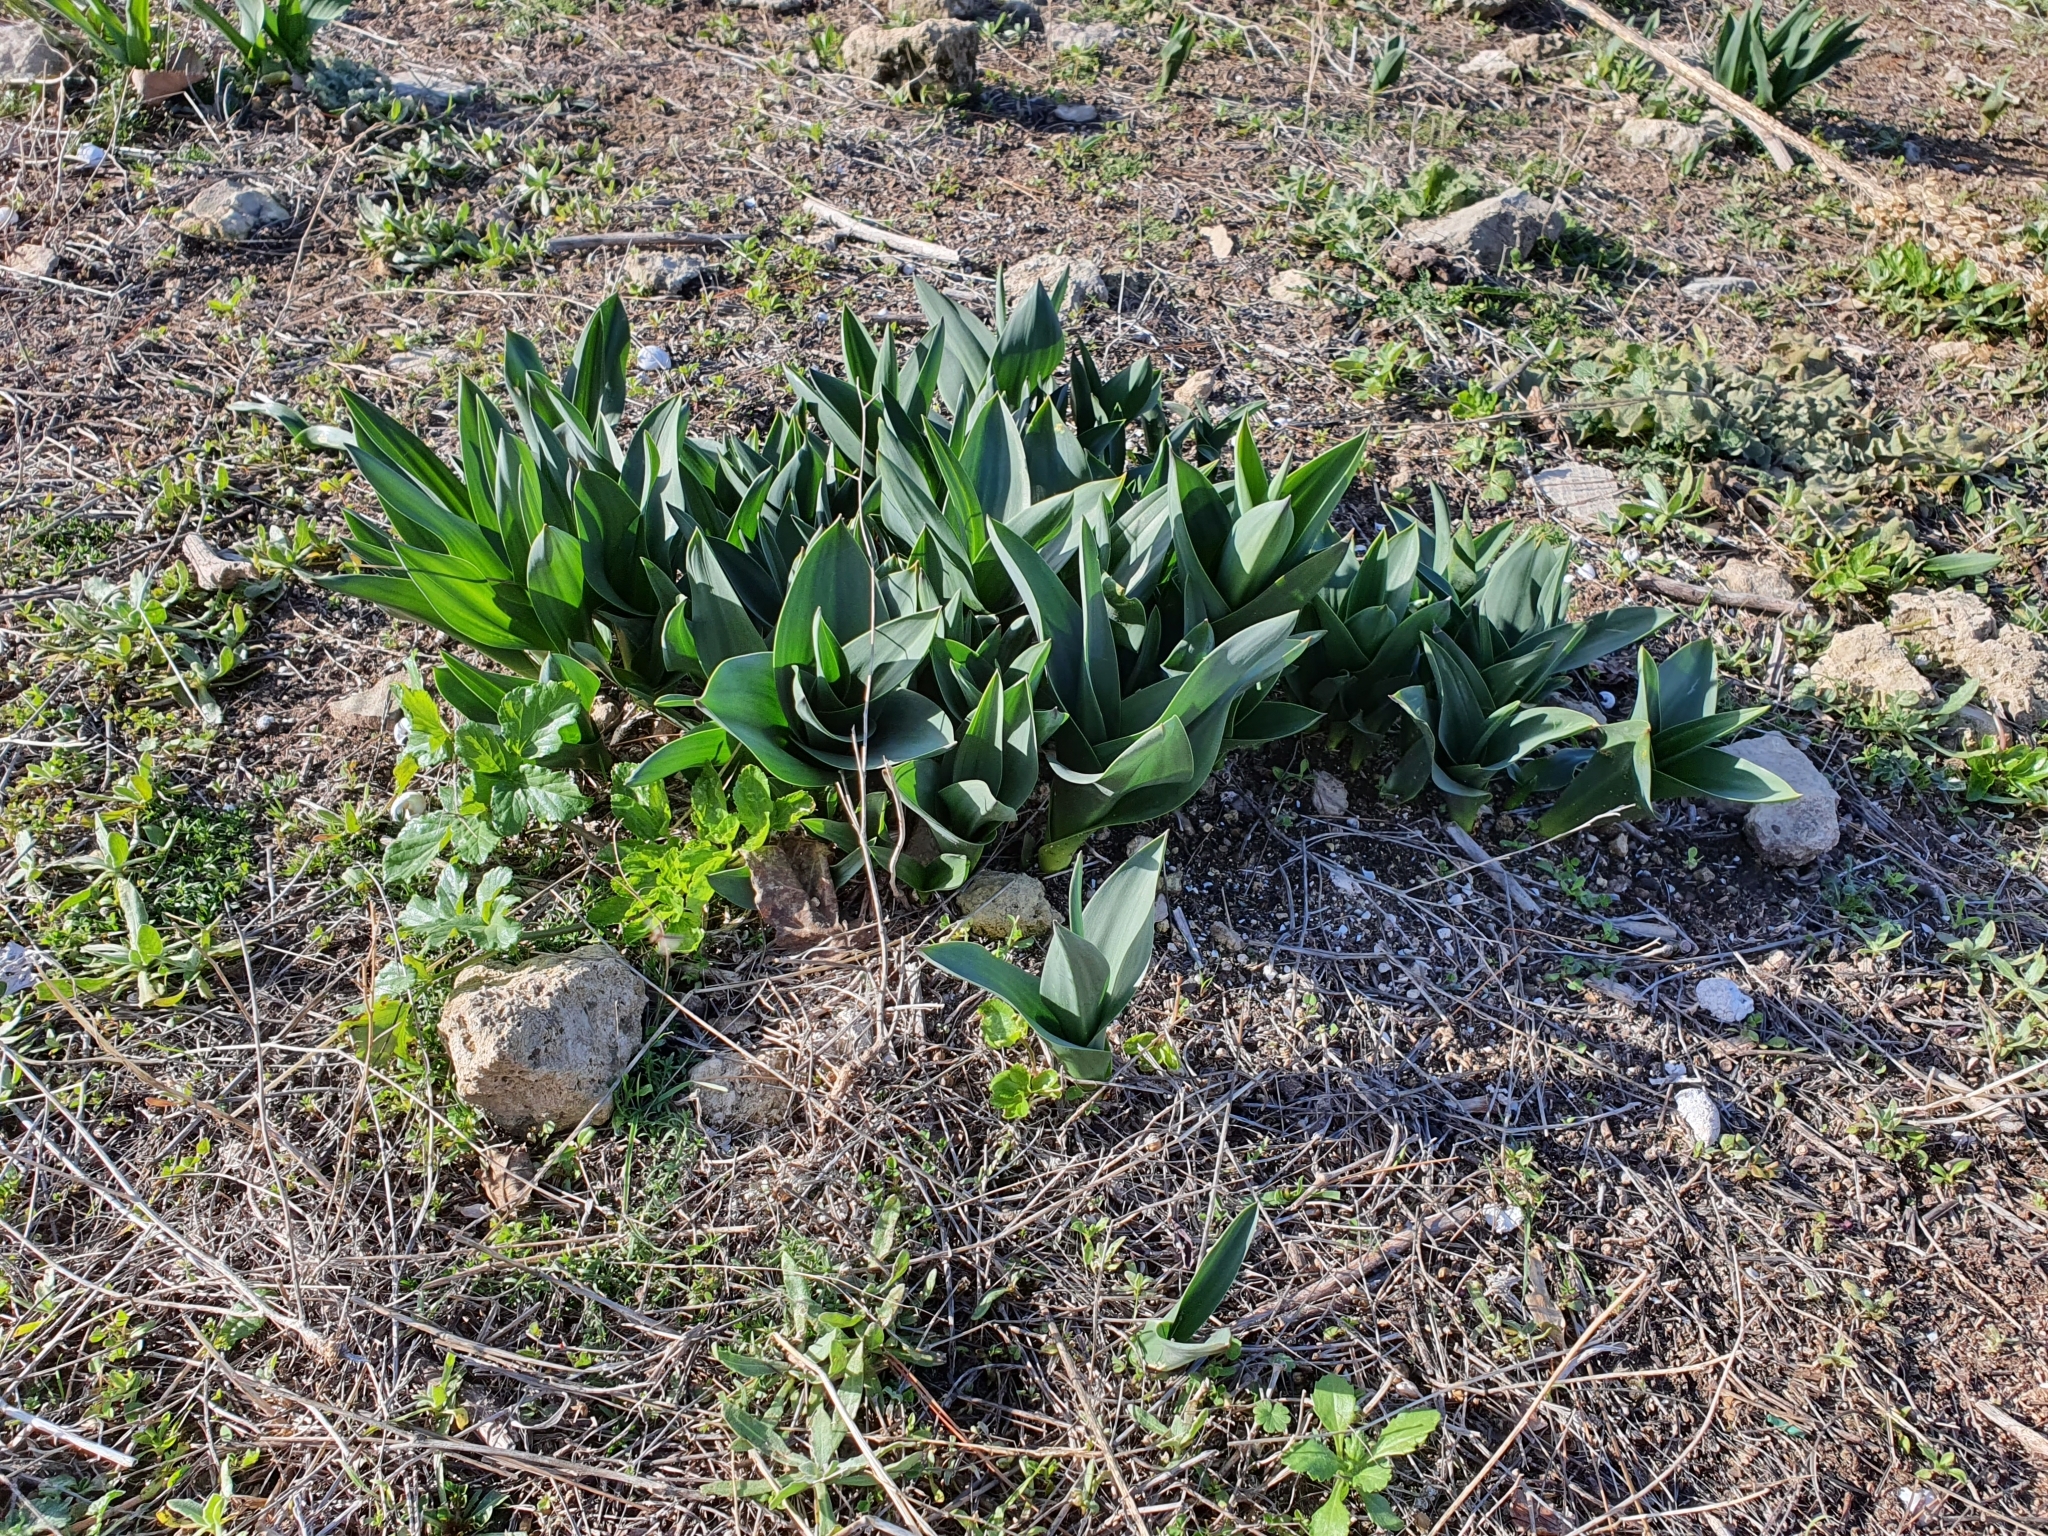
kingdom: Plantae
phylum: Tracheophyta
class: Liliopsida
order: Asparagales
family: Asparagaceae
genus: Drimia
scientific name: Drimia numidica
